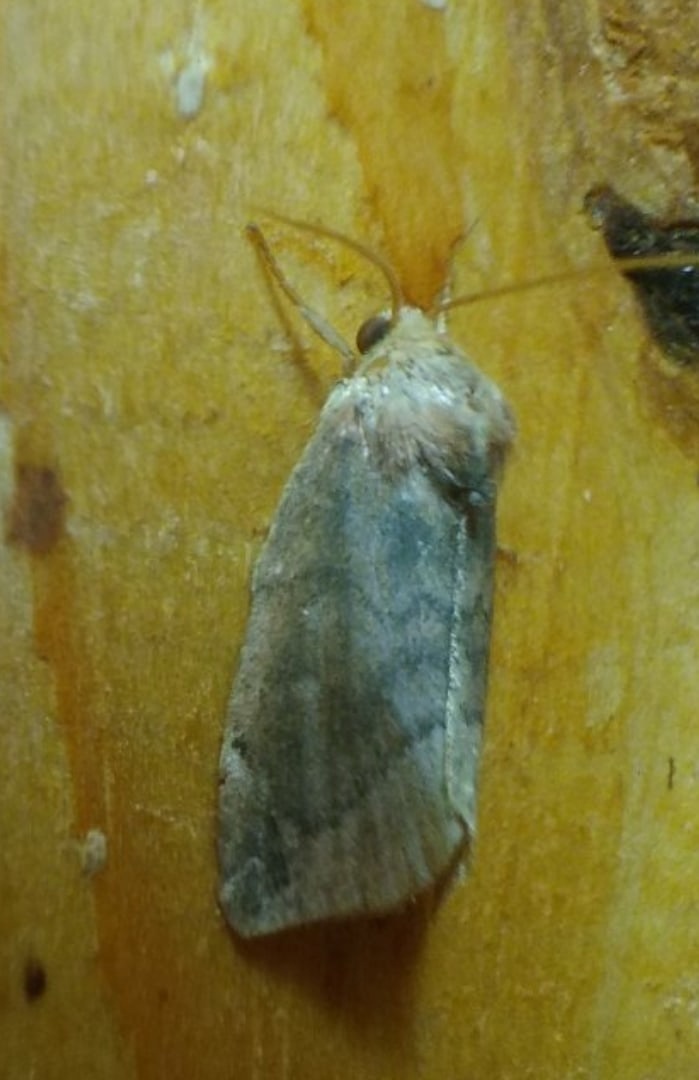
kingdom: Animalia
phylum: Arthropoda
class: Insecta
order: Lepidoptera
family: Noctuidae
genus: Cosmia
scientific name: Cosmia pyralina
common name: Lunar-spotted pinion
